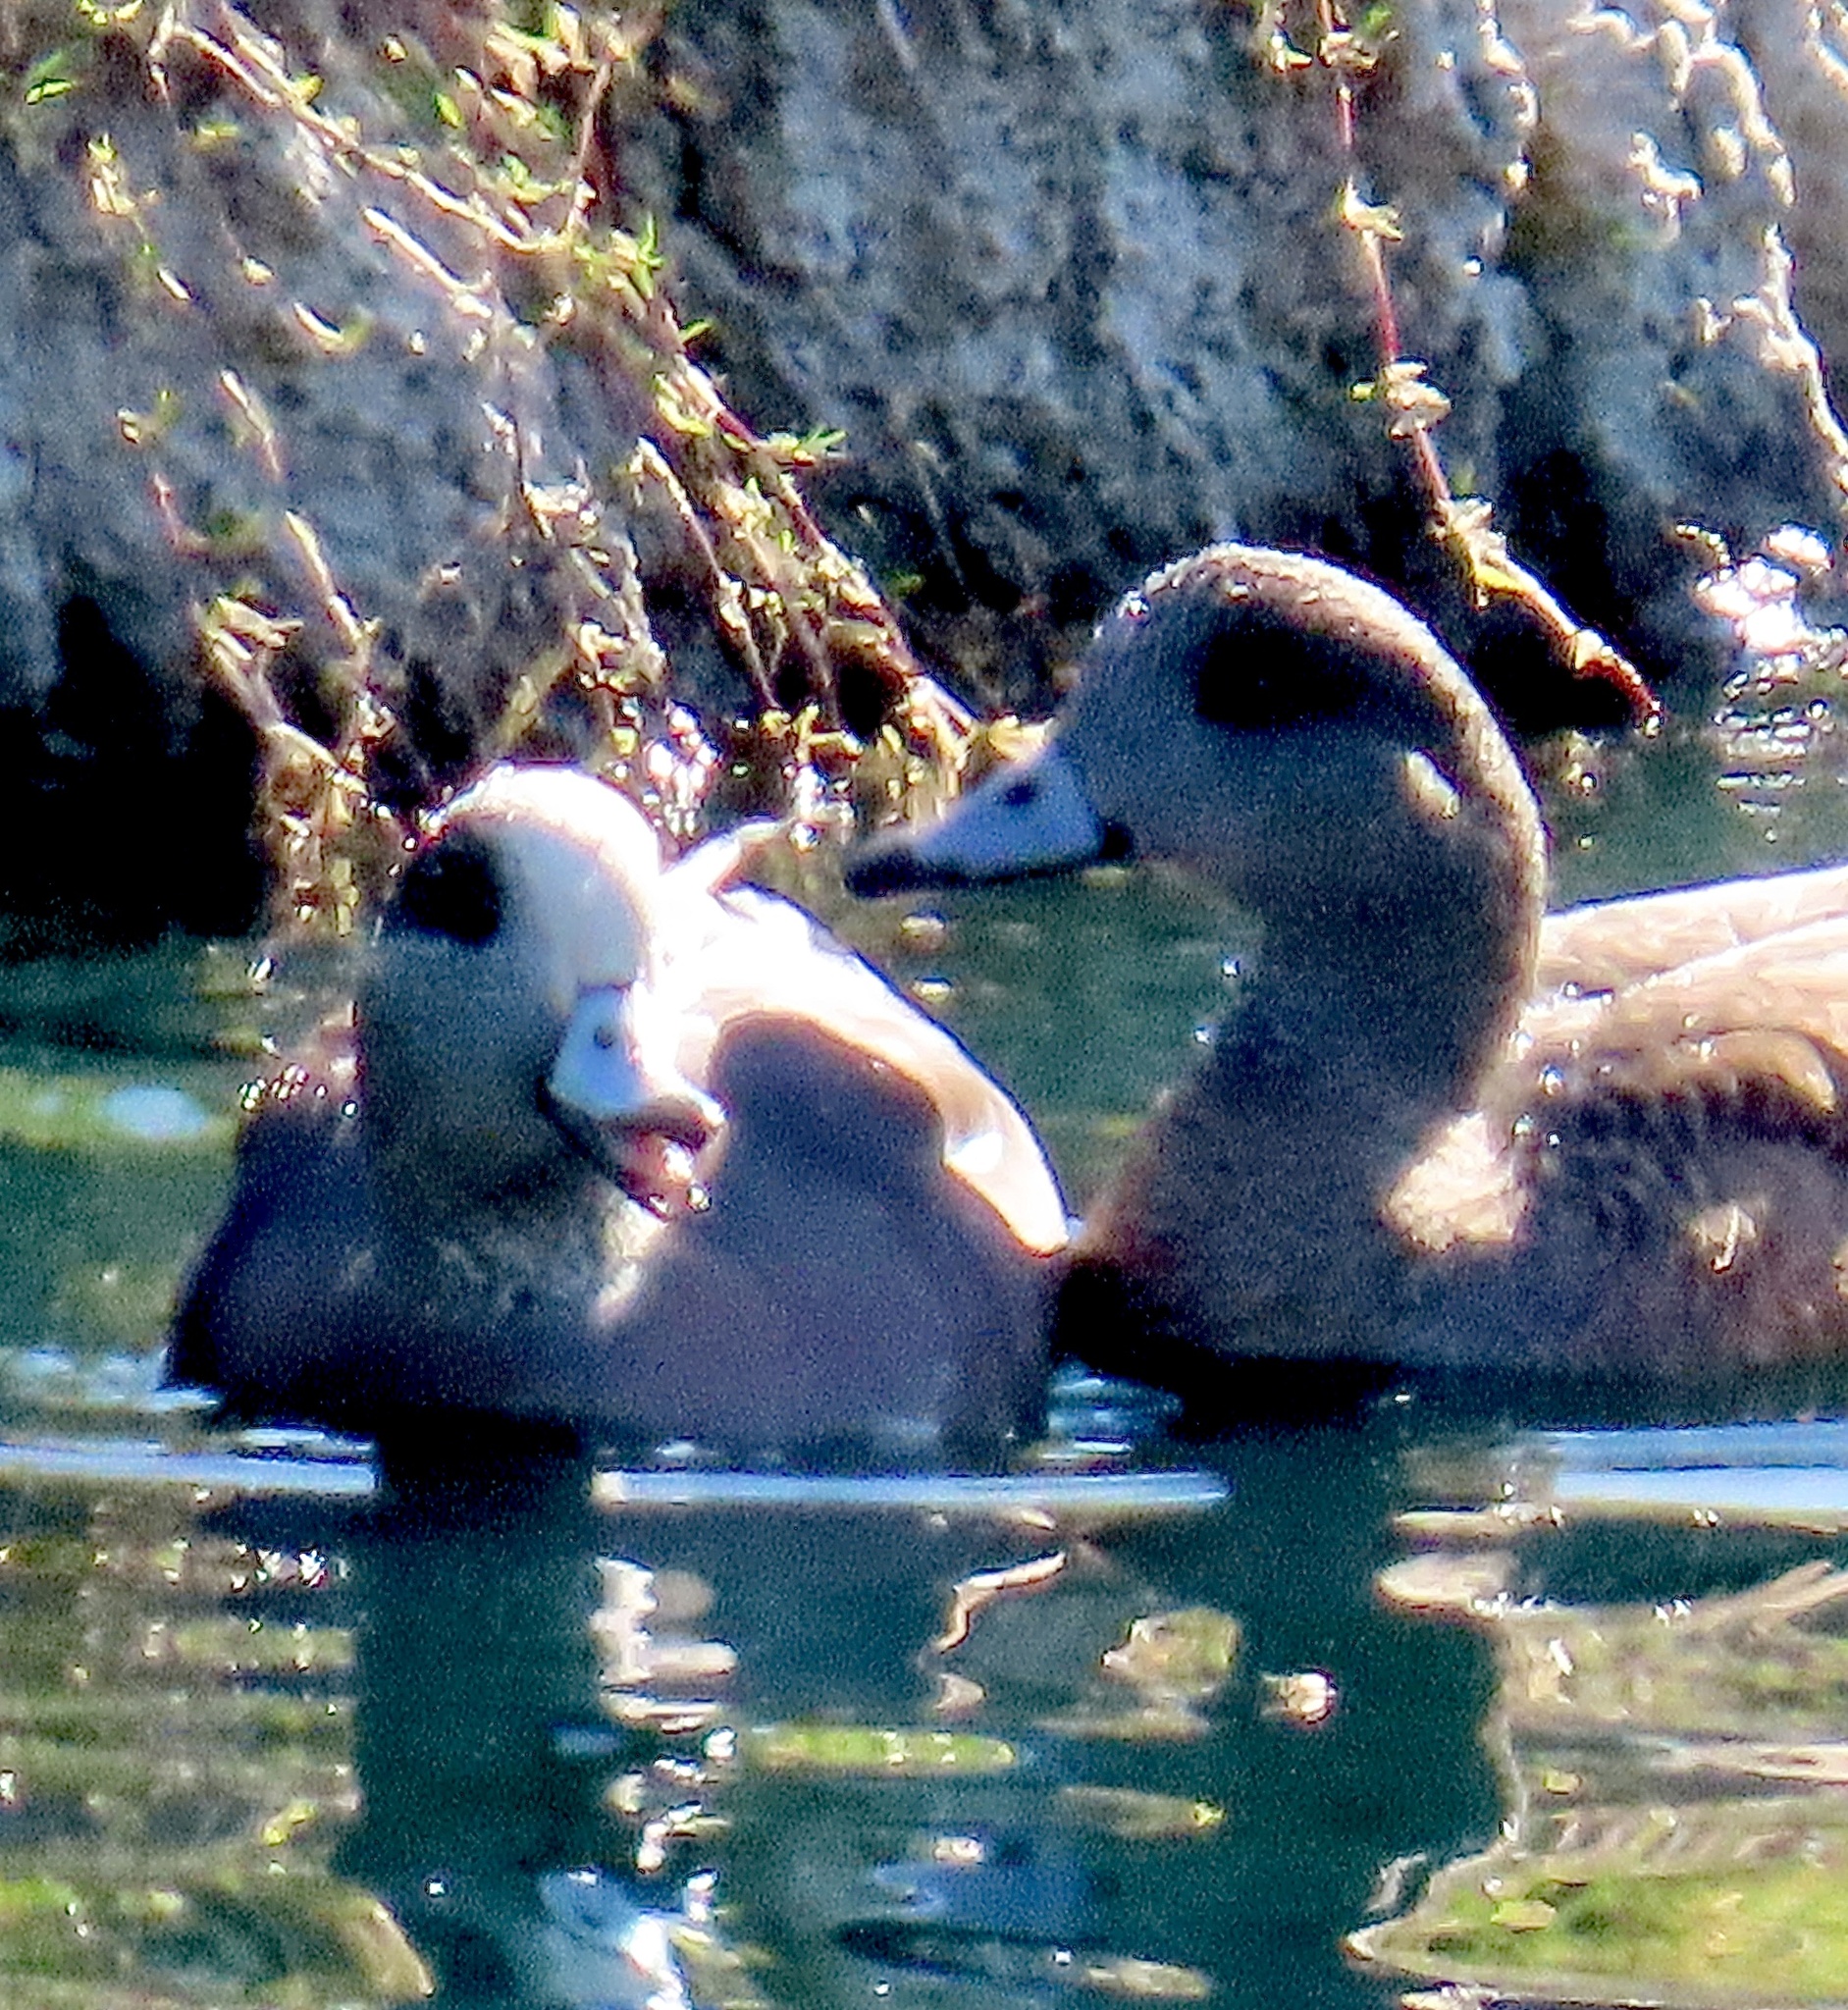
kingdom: Animalia
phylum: Chordata
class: Aves
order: Anseriformes
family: Anatidae
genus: Mareca
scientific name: Mareca americana
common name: American wigeon
